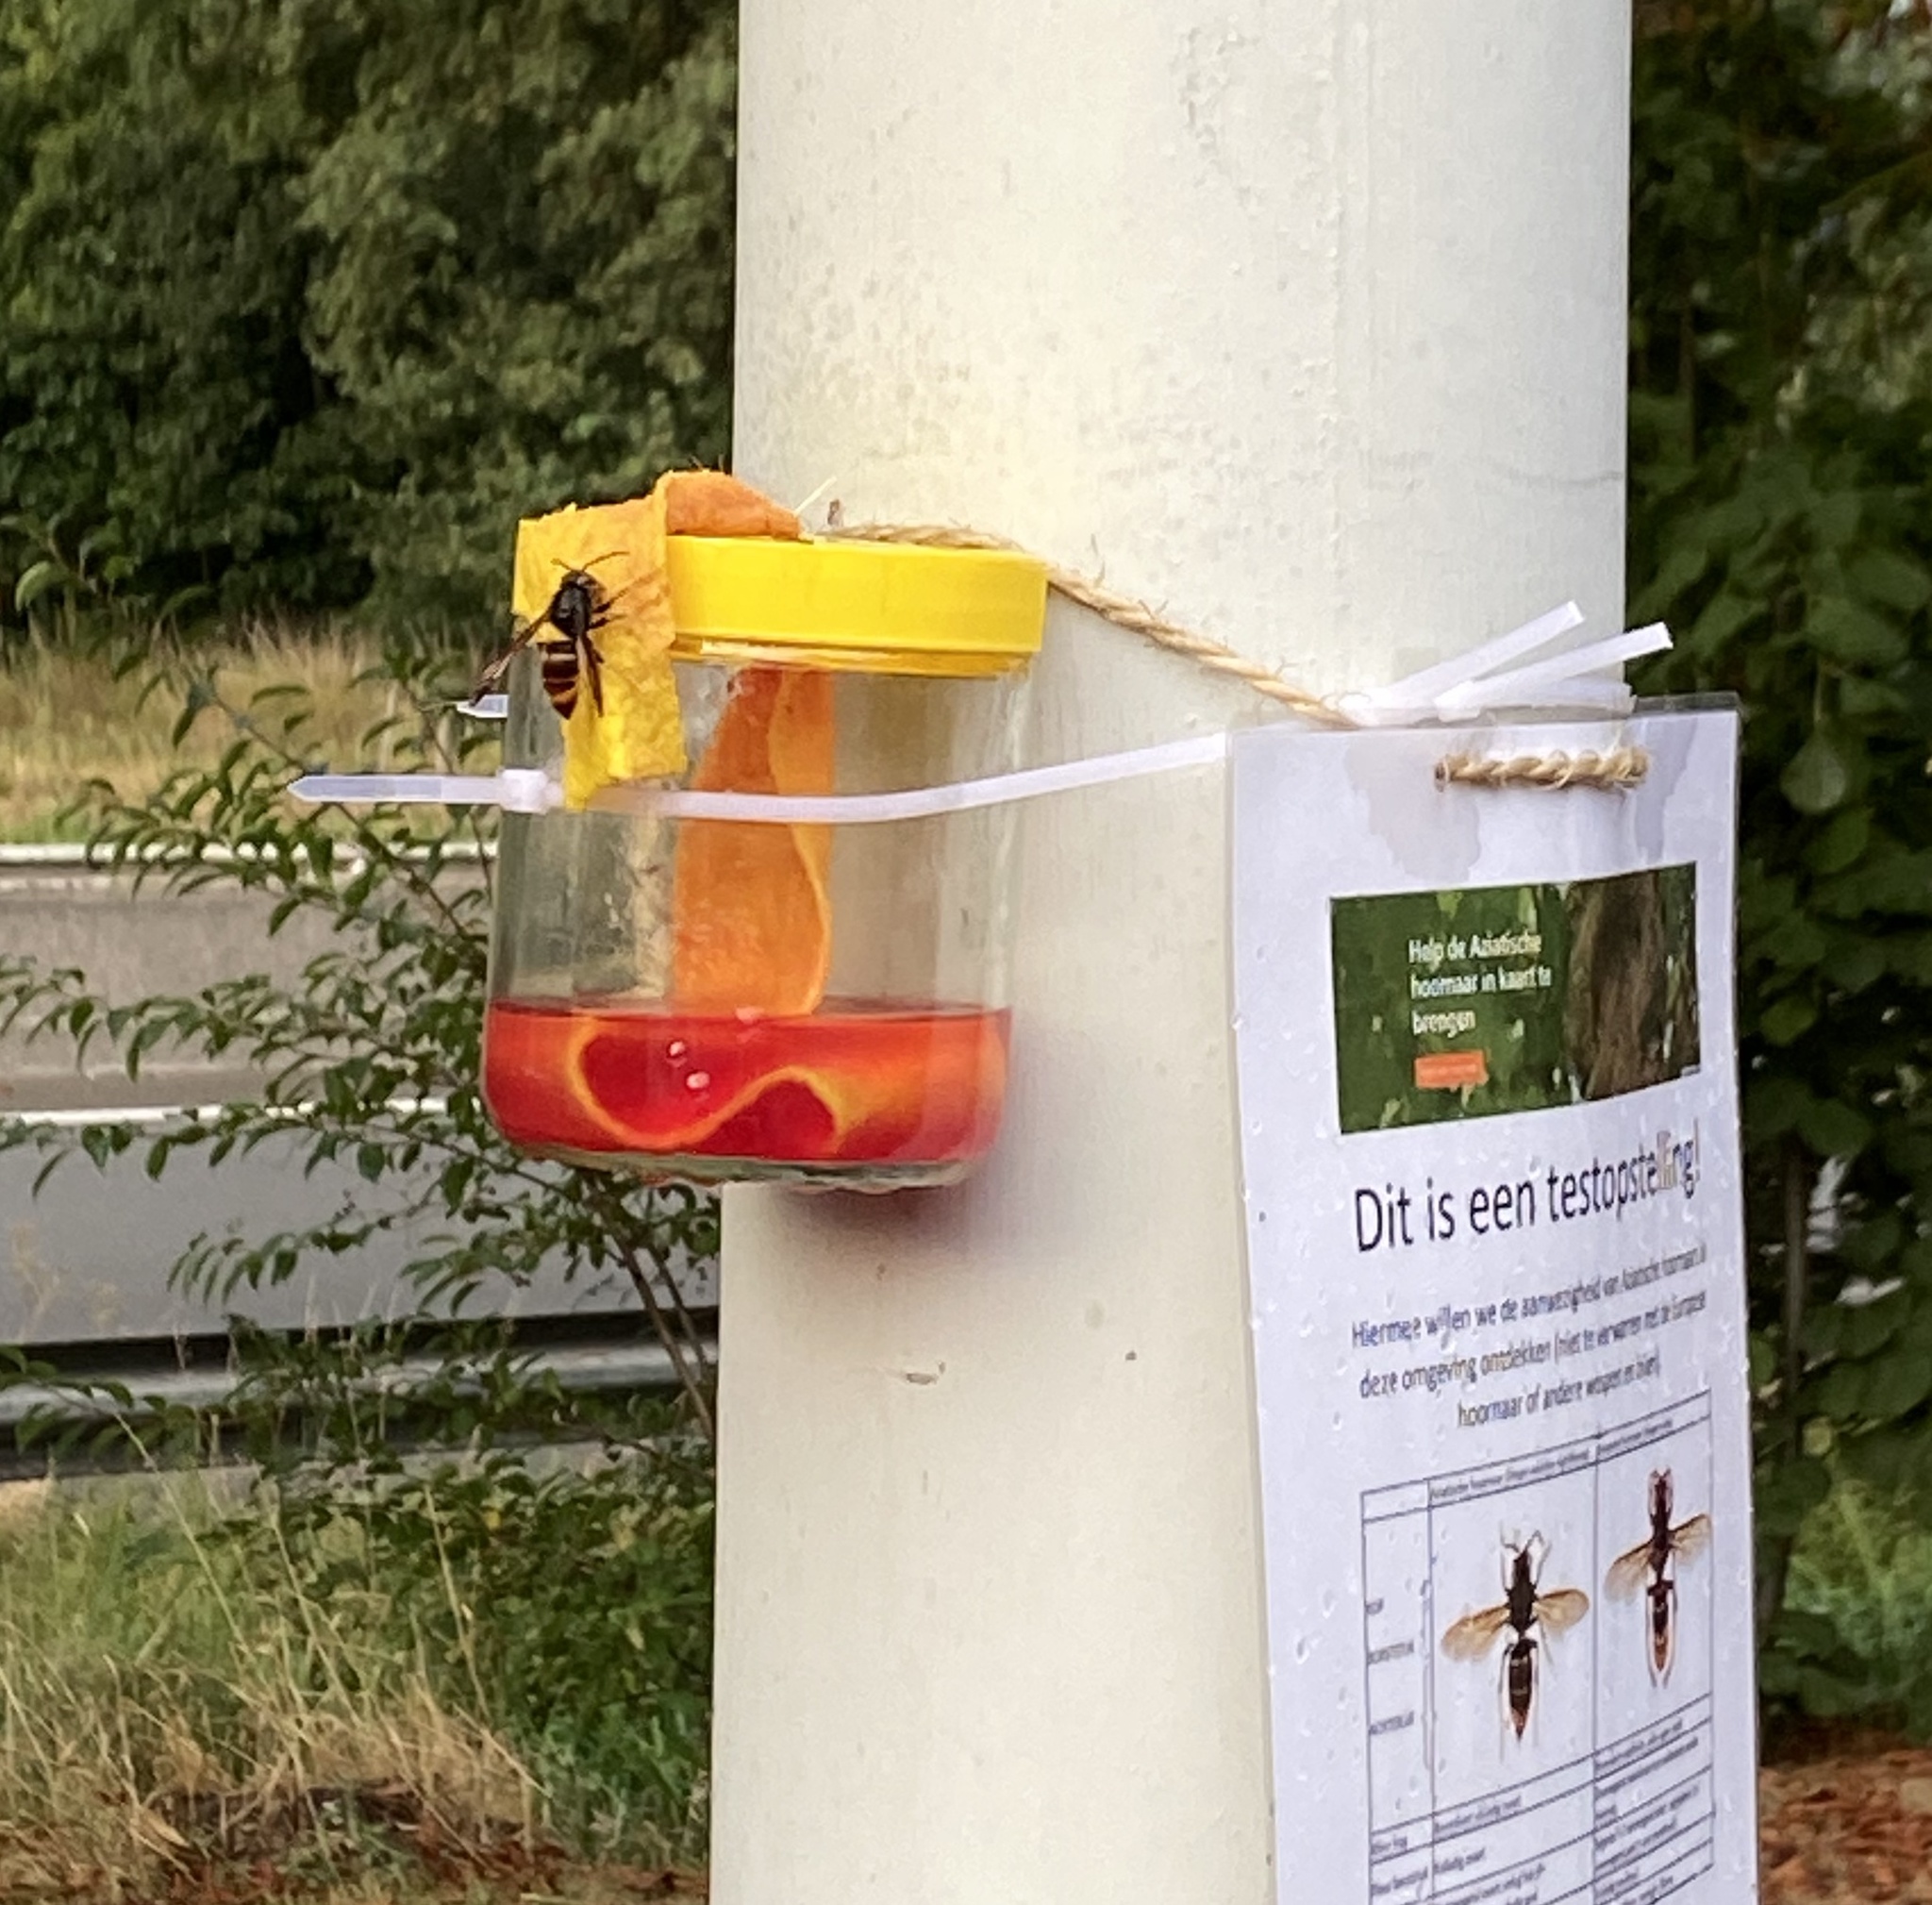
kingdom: Animalia
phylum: Arthropoda
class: Insecta
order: Hymenoptera
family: Vespidae
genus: Vespa
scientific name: Vespa velutina
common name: Asian hornet
